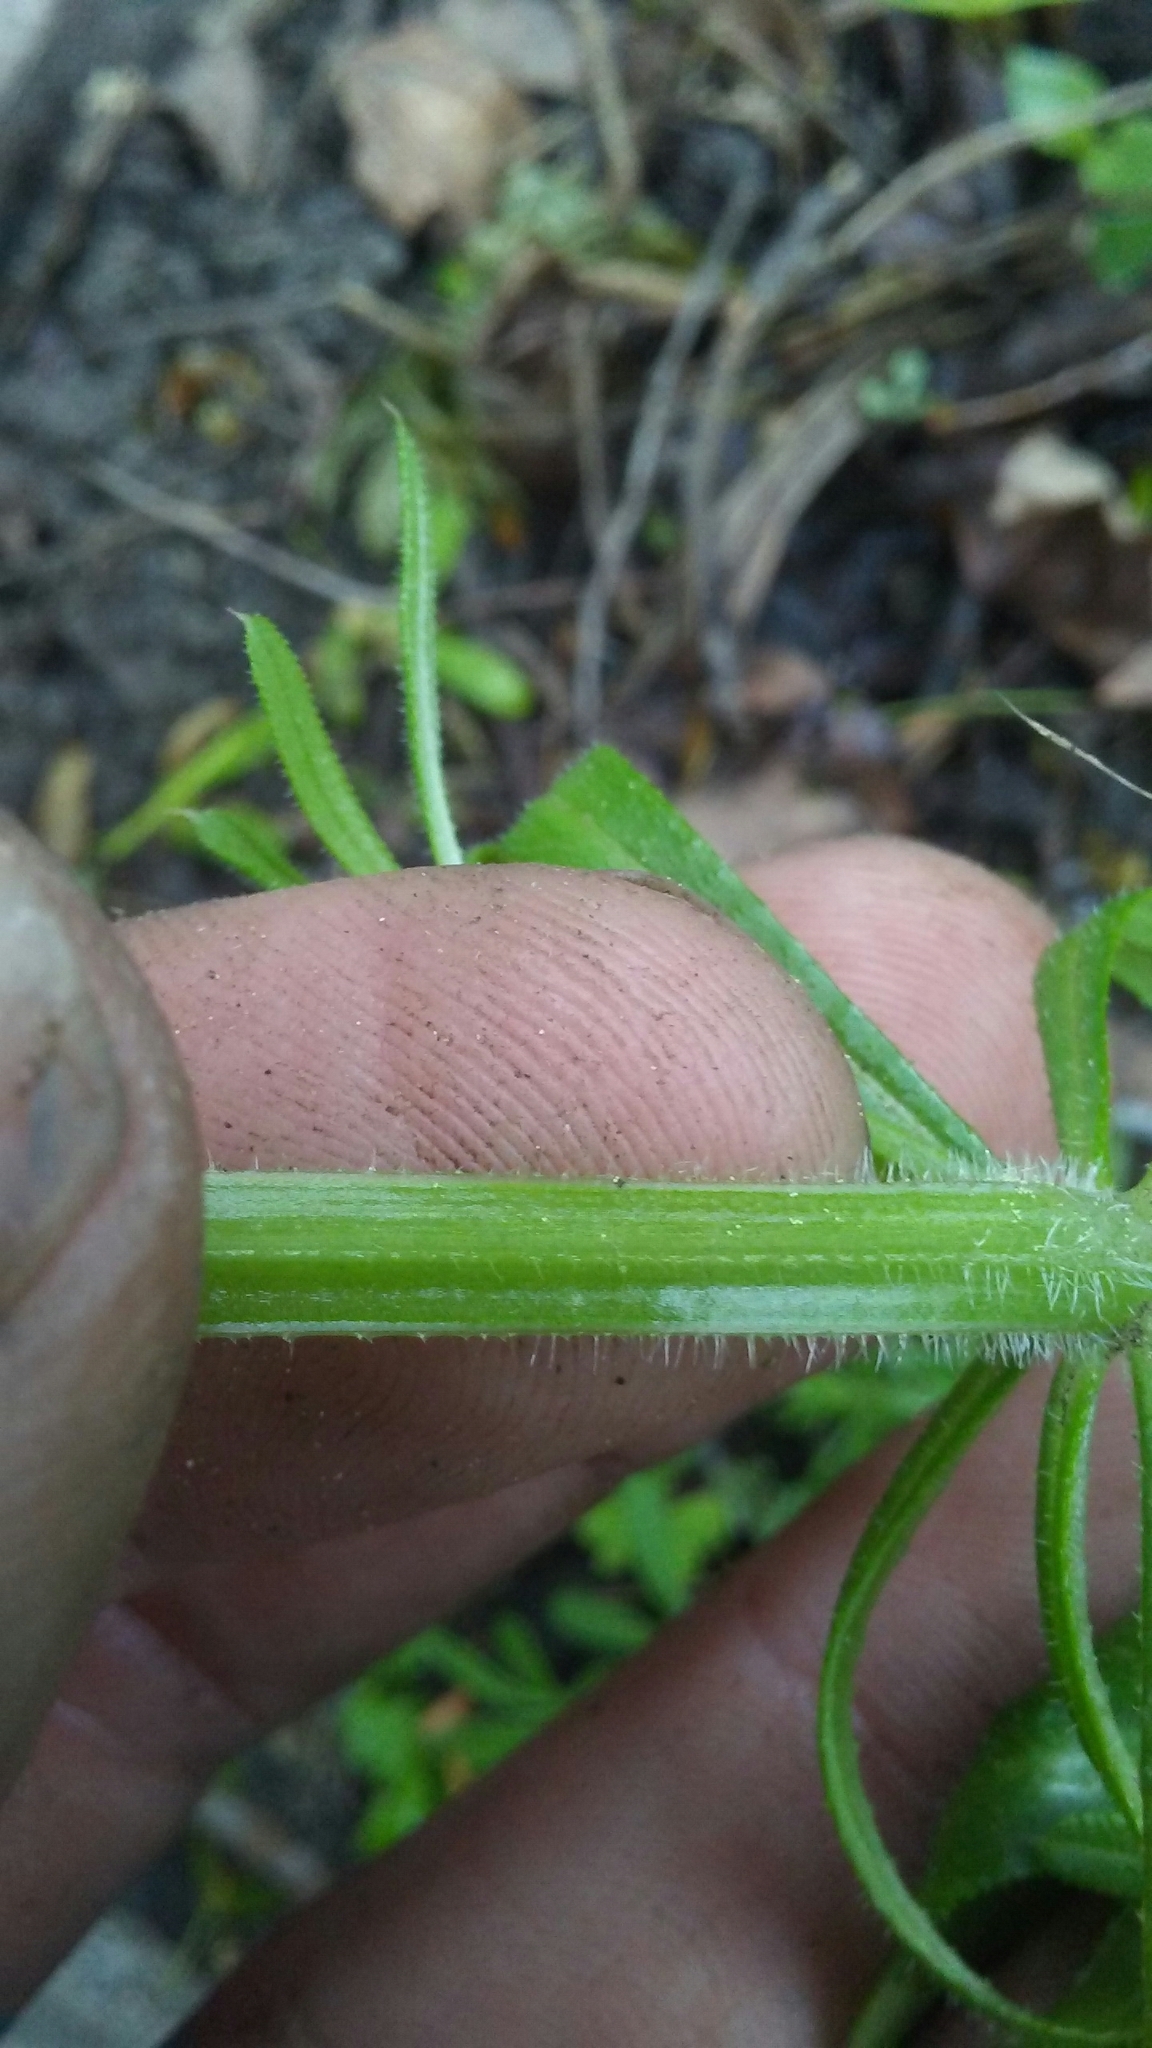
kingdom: Plantae
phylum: Tracheophyta
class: Magnoliopsida
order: Gentianales
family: Rubiaceae
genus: Galium
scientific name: Galium aparine
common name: Cleavers
